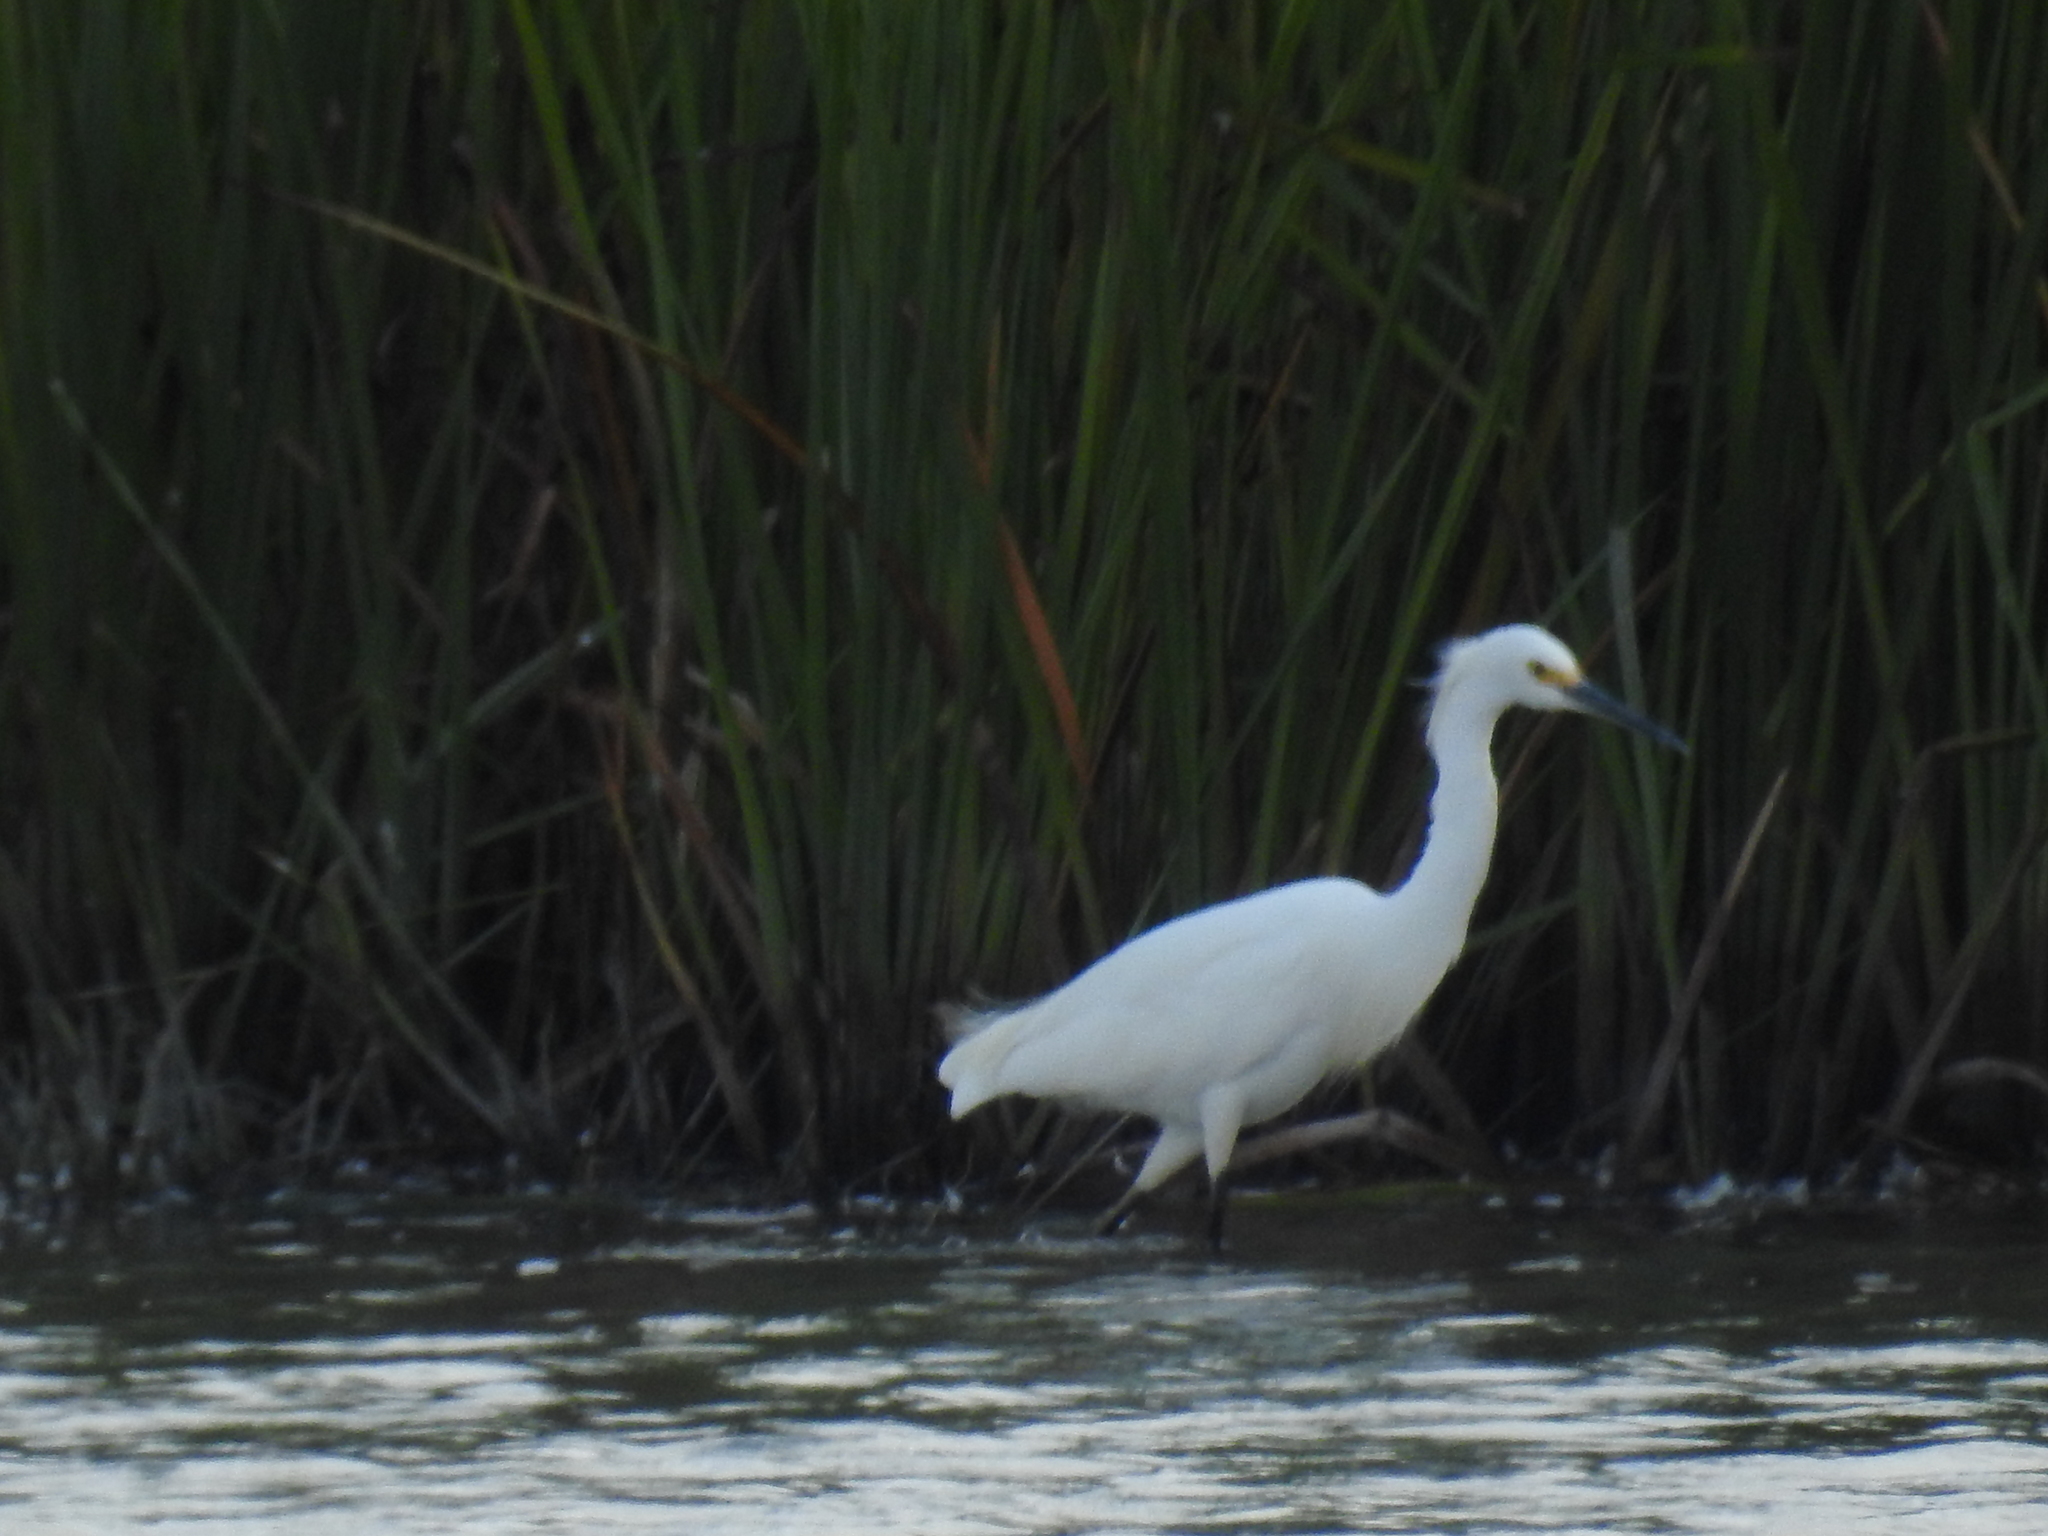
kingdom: Animalia
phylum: Chordata
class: Aves
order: Pelecaniformes
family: Ardeidae
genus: Egretta
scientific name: Egretta thula
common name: Snowy egret
